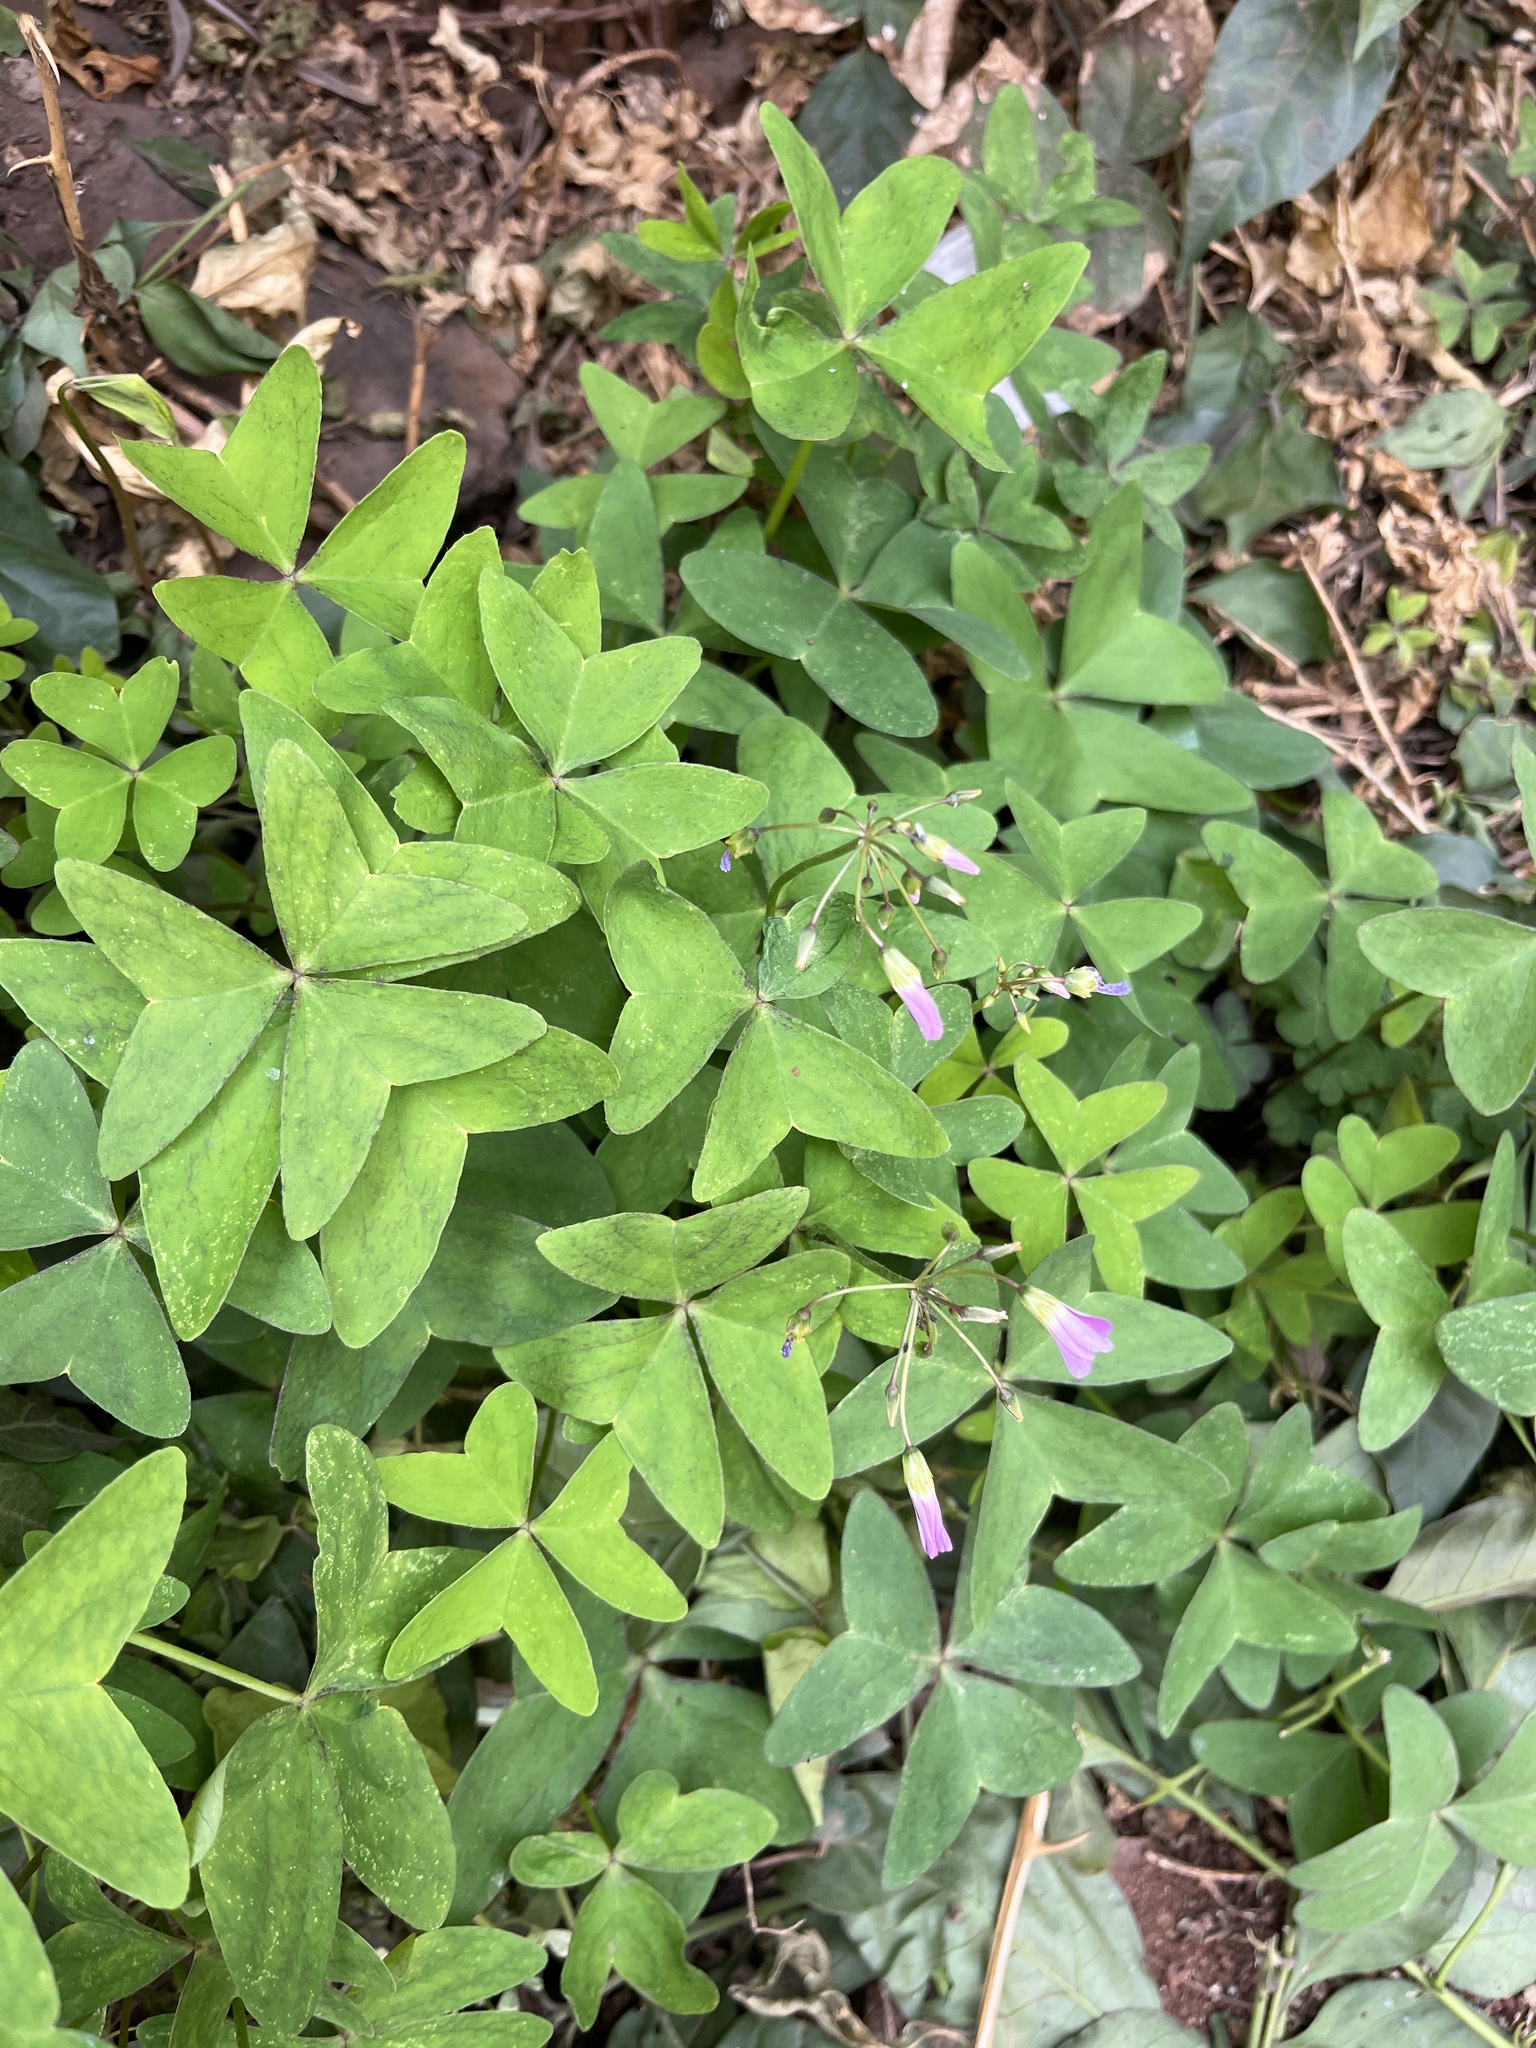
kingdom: Plantae
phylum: Tracheophyta
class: Magnoliopsida
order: Oxalidales
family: Oxalidaceae
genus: Oxalis
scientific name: Oxalis latifolia
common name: Garden pink-sorrel
